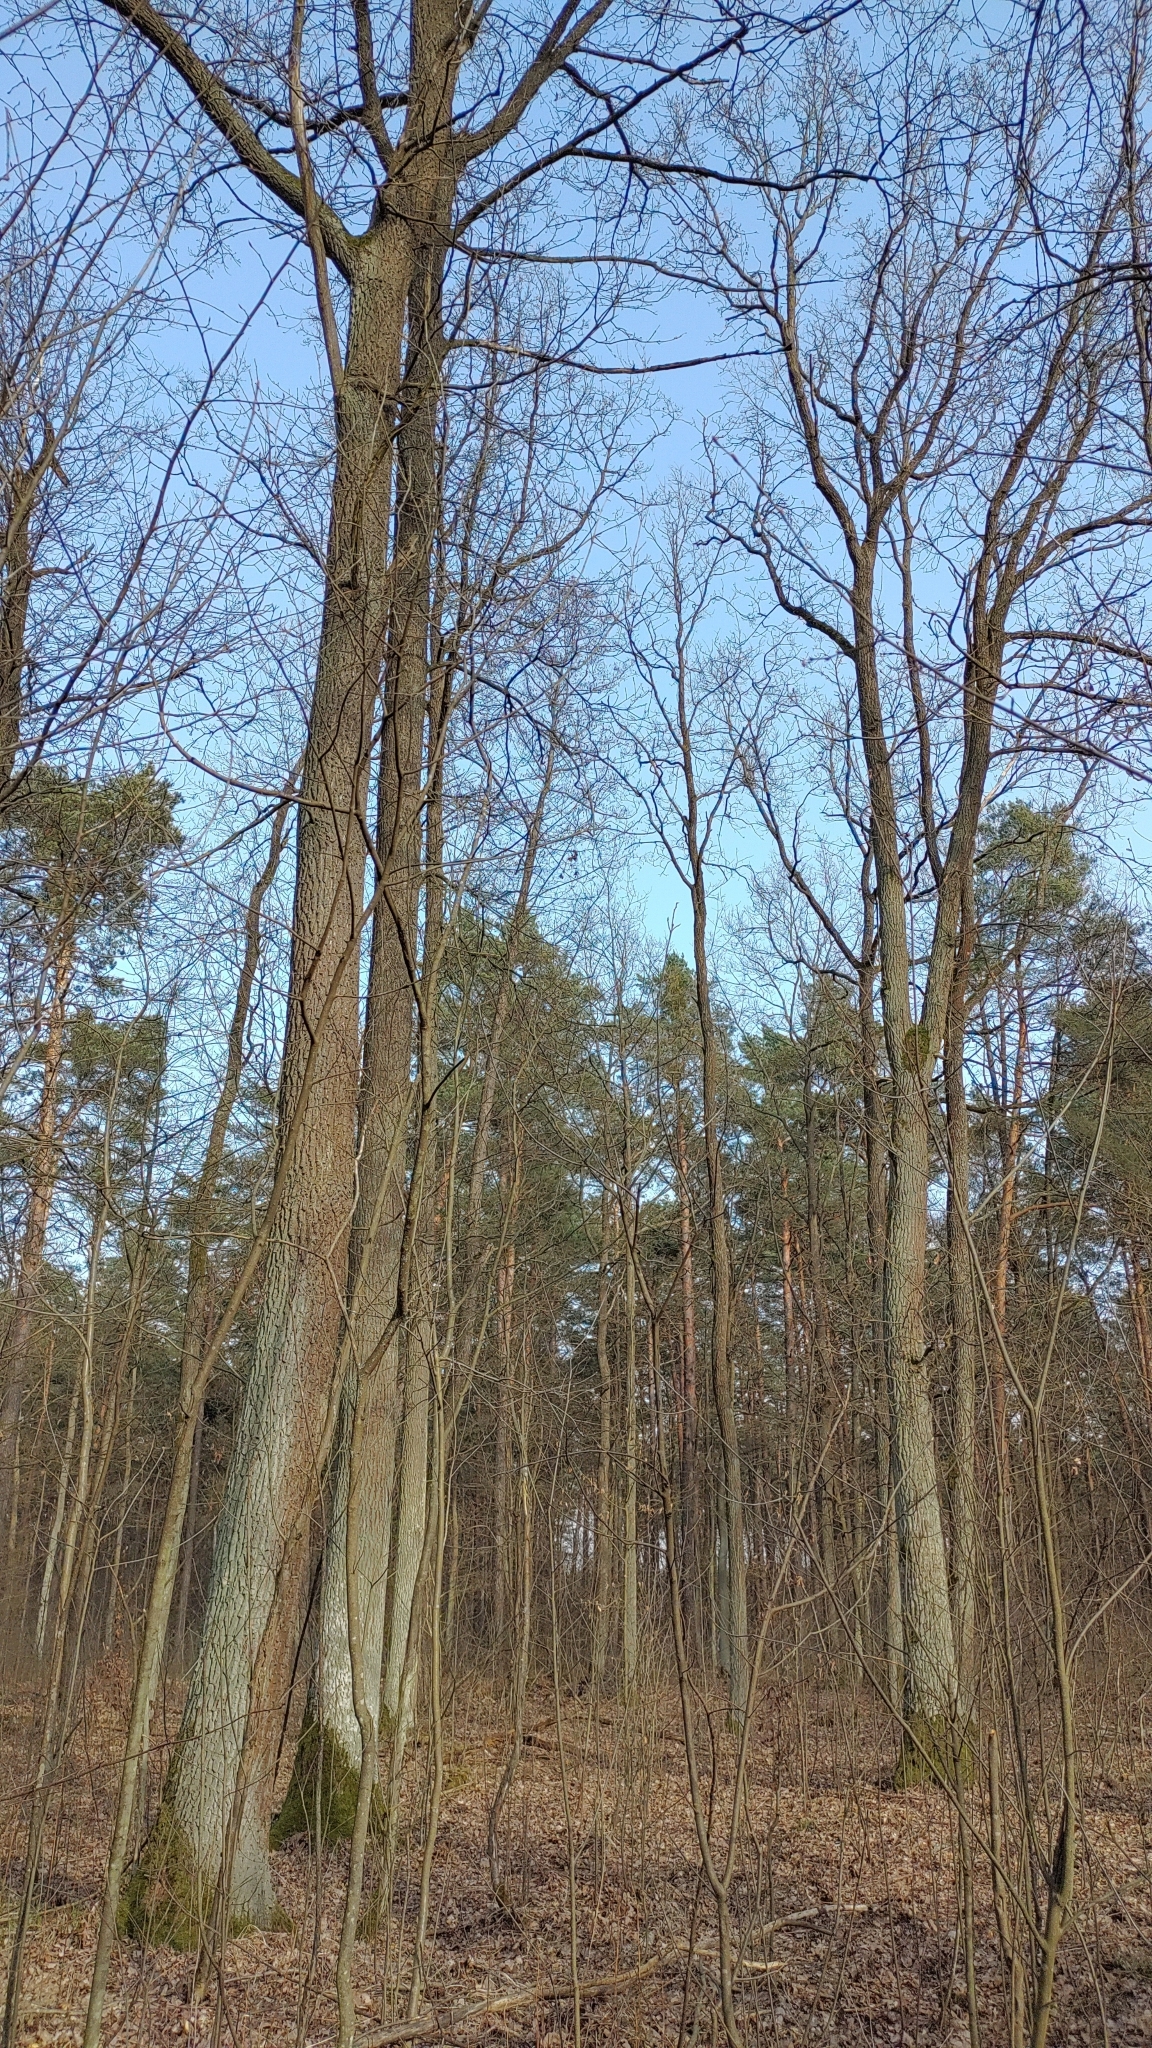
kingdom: Animalia
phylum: Chordata
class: Aves
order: Passeriformes
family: Bombycillidae
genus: Bombycilla
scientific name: Bombycilla garrulus
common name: Bohemian waxwing
